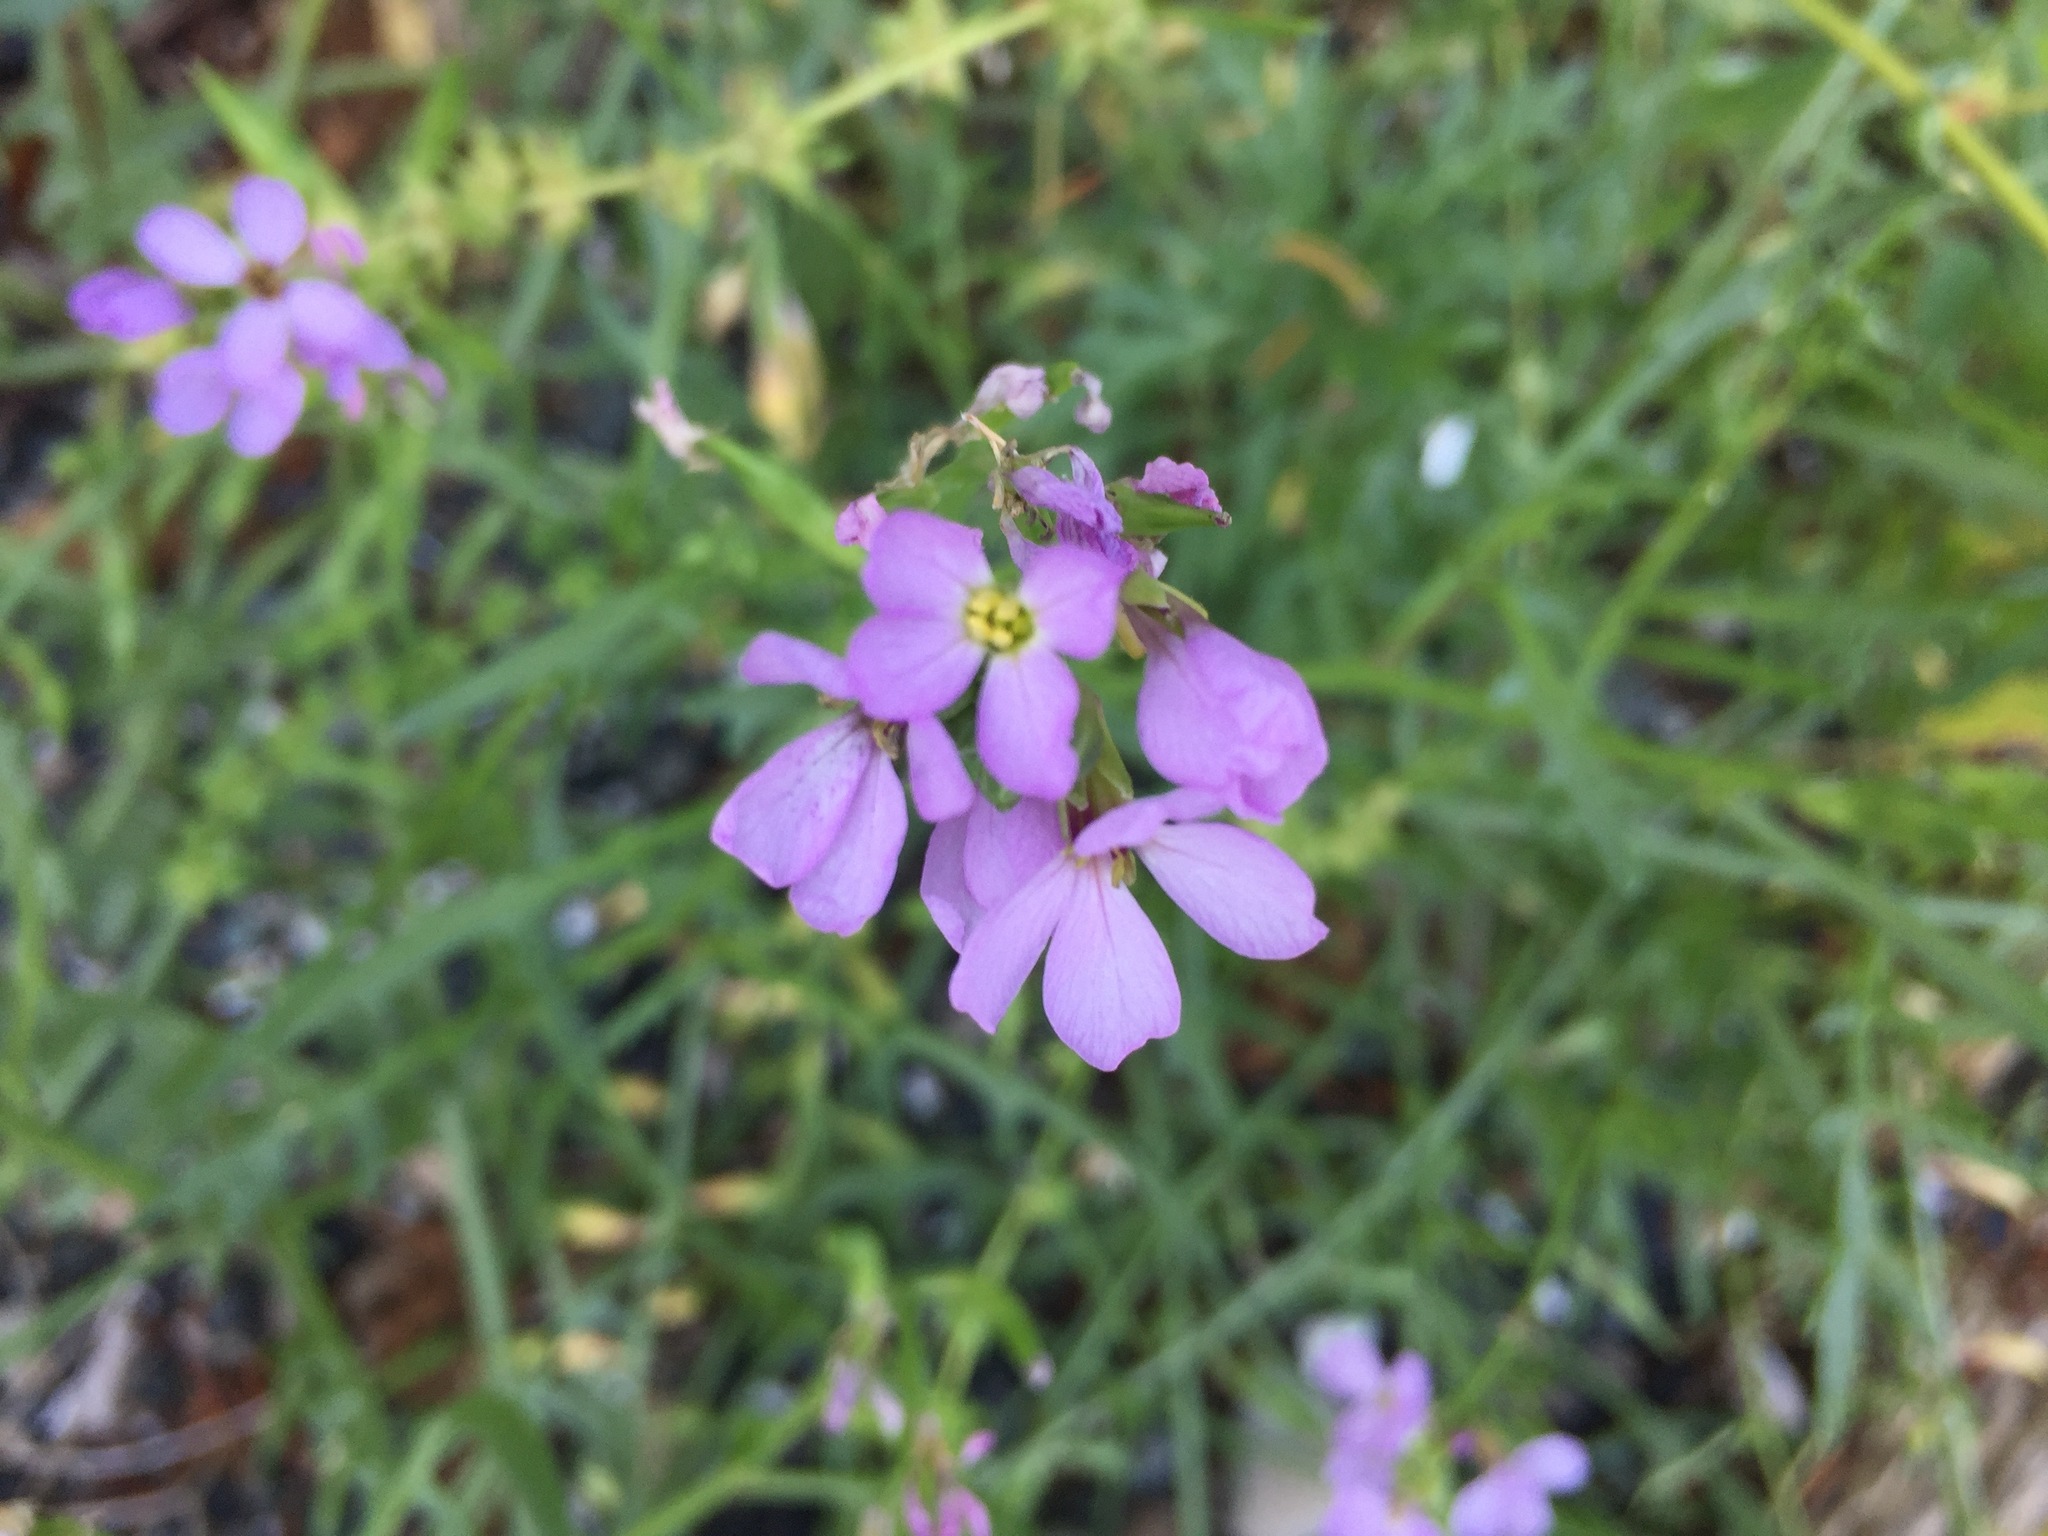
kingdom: Plantae
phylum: Tracheophyta
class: Magnoliopsida
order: Brassicales
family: Brassicaceae
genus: Cakile
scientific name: Cakile maritima
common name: Sea rocket
